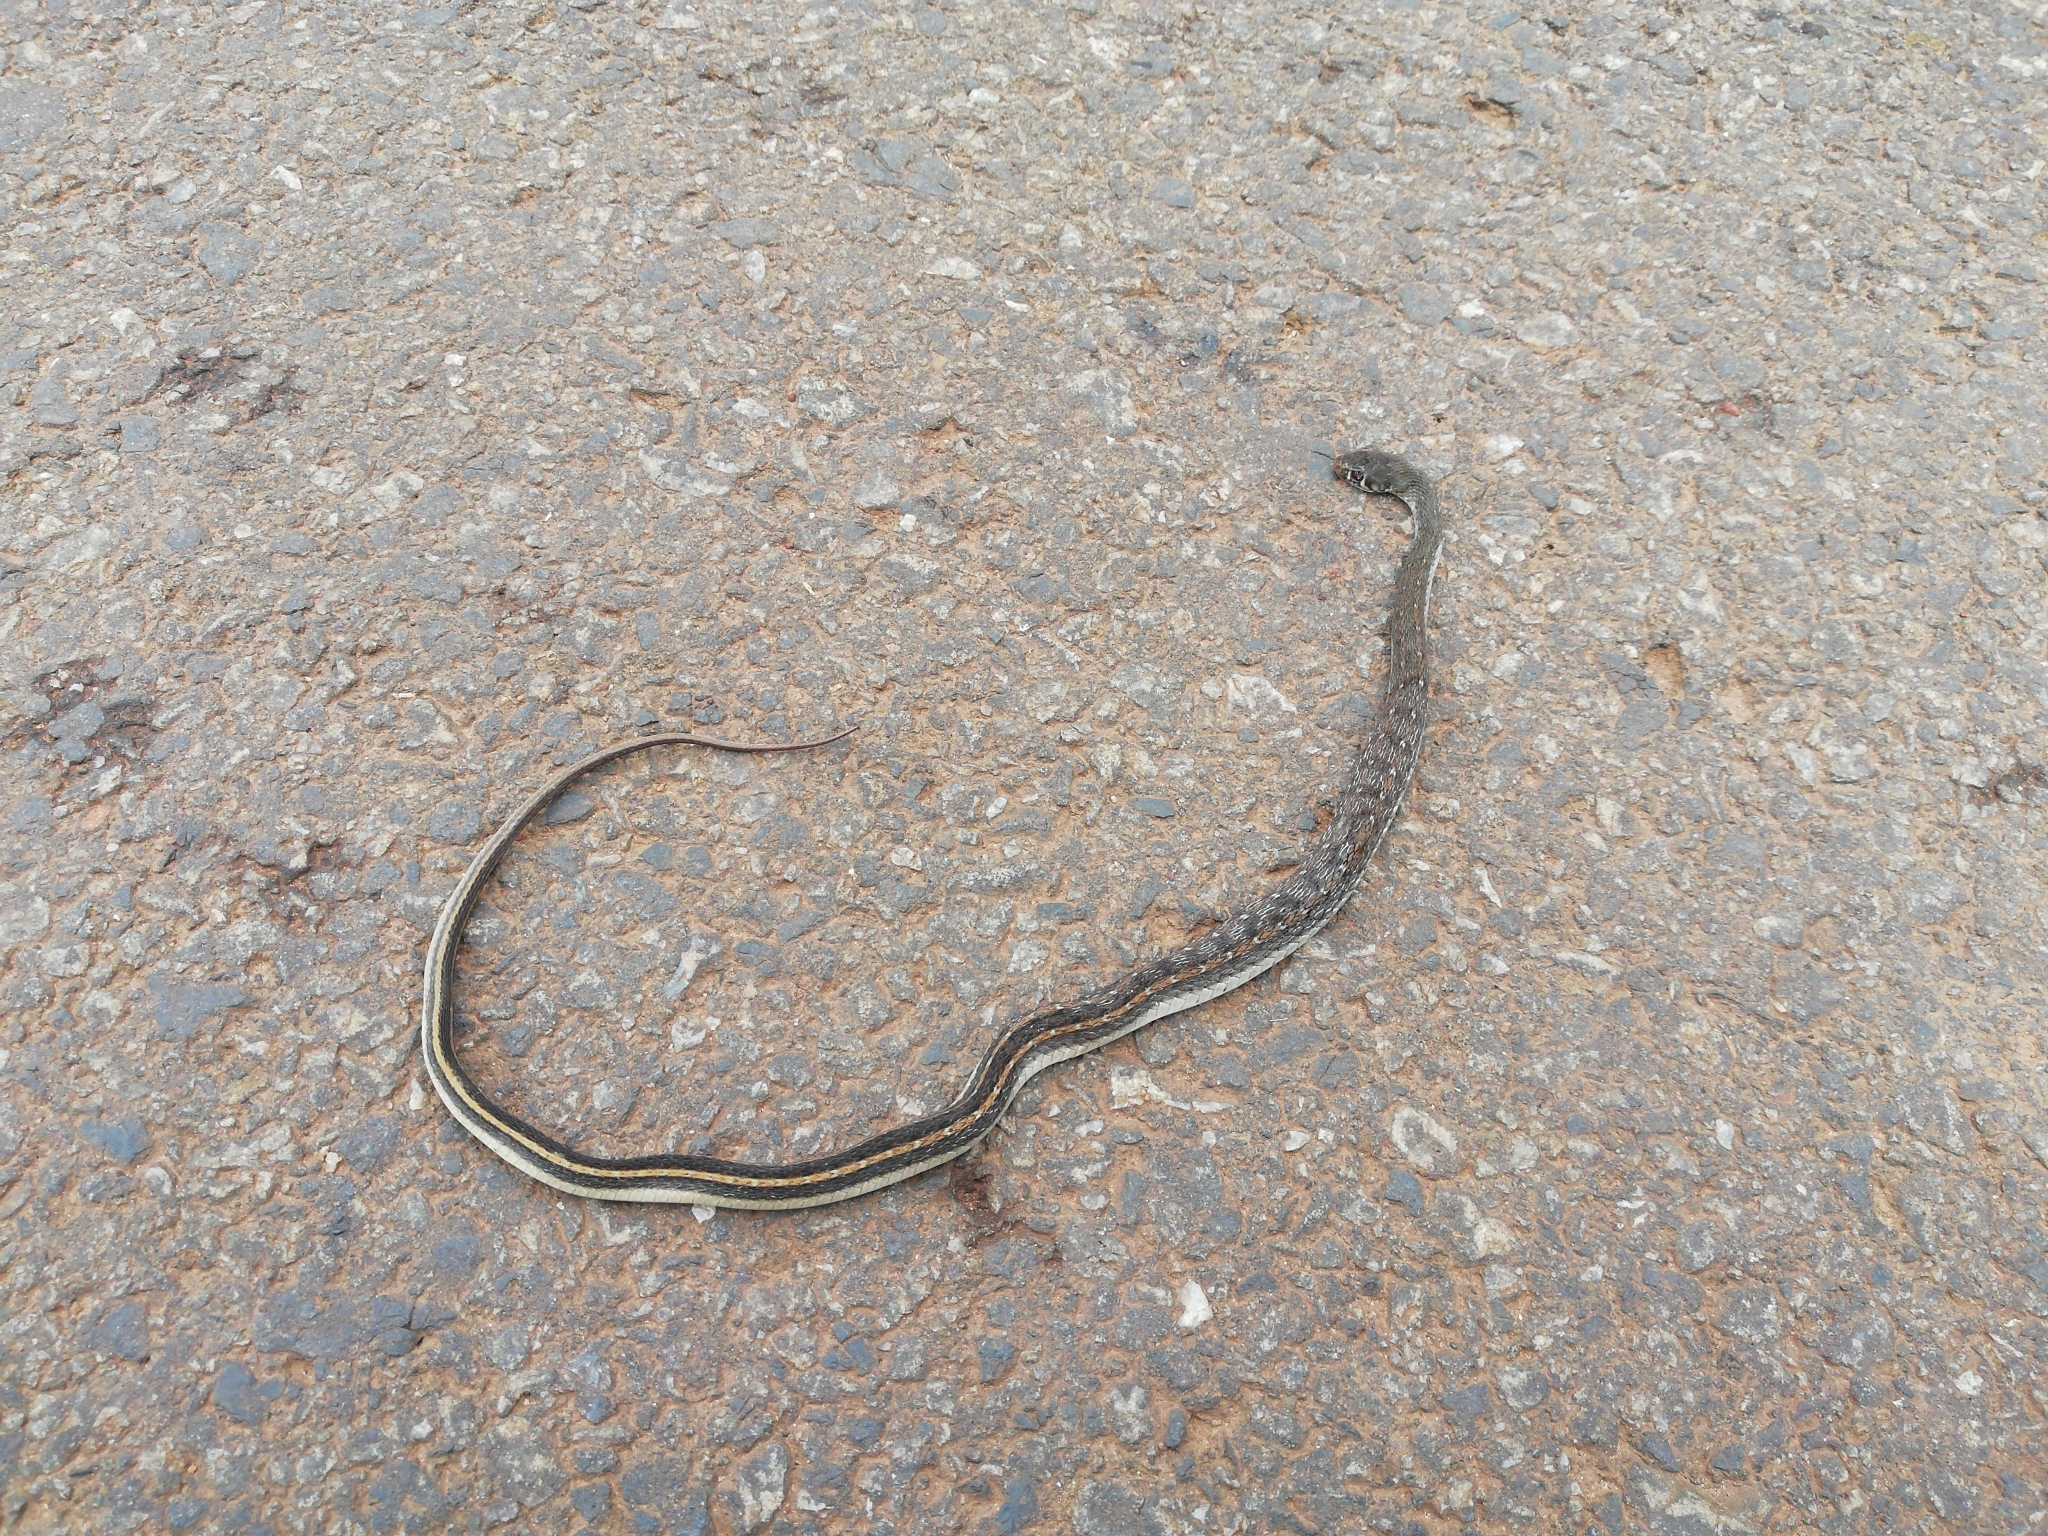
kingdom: Animalia
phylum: Chordata
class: Squamata
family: Colubridae
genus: Amphiesma
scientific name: Amphiesma stolatum
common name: Buff striped keelback
